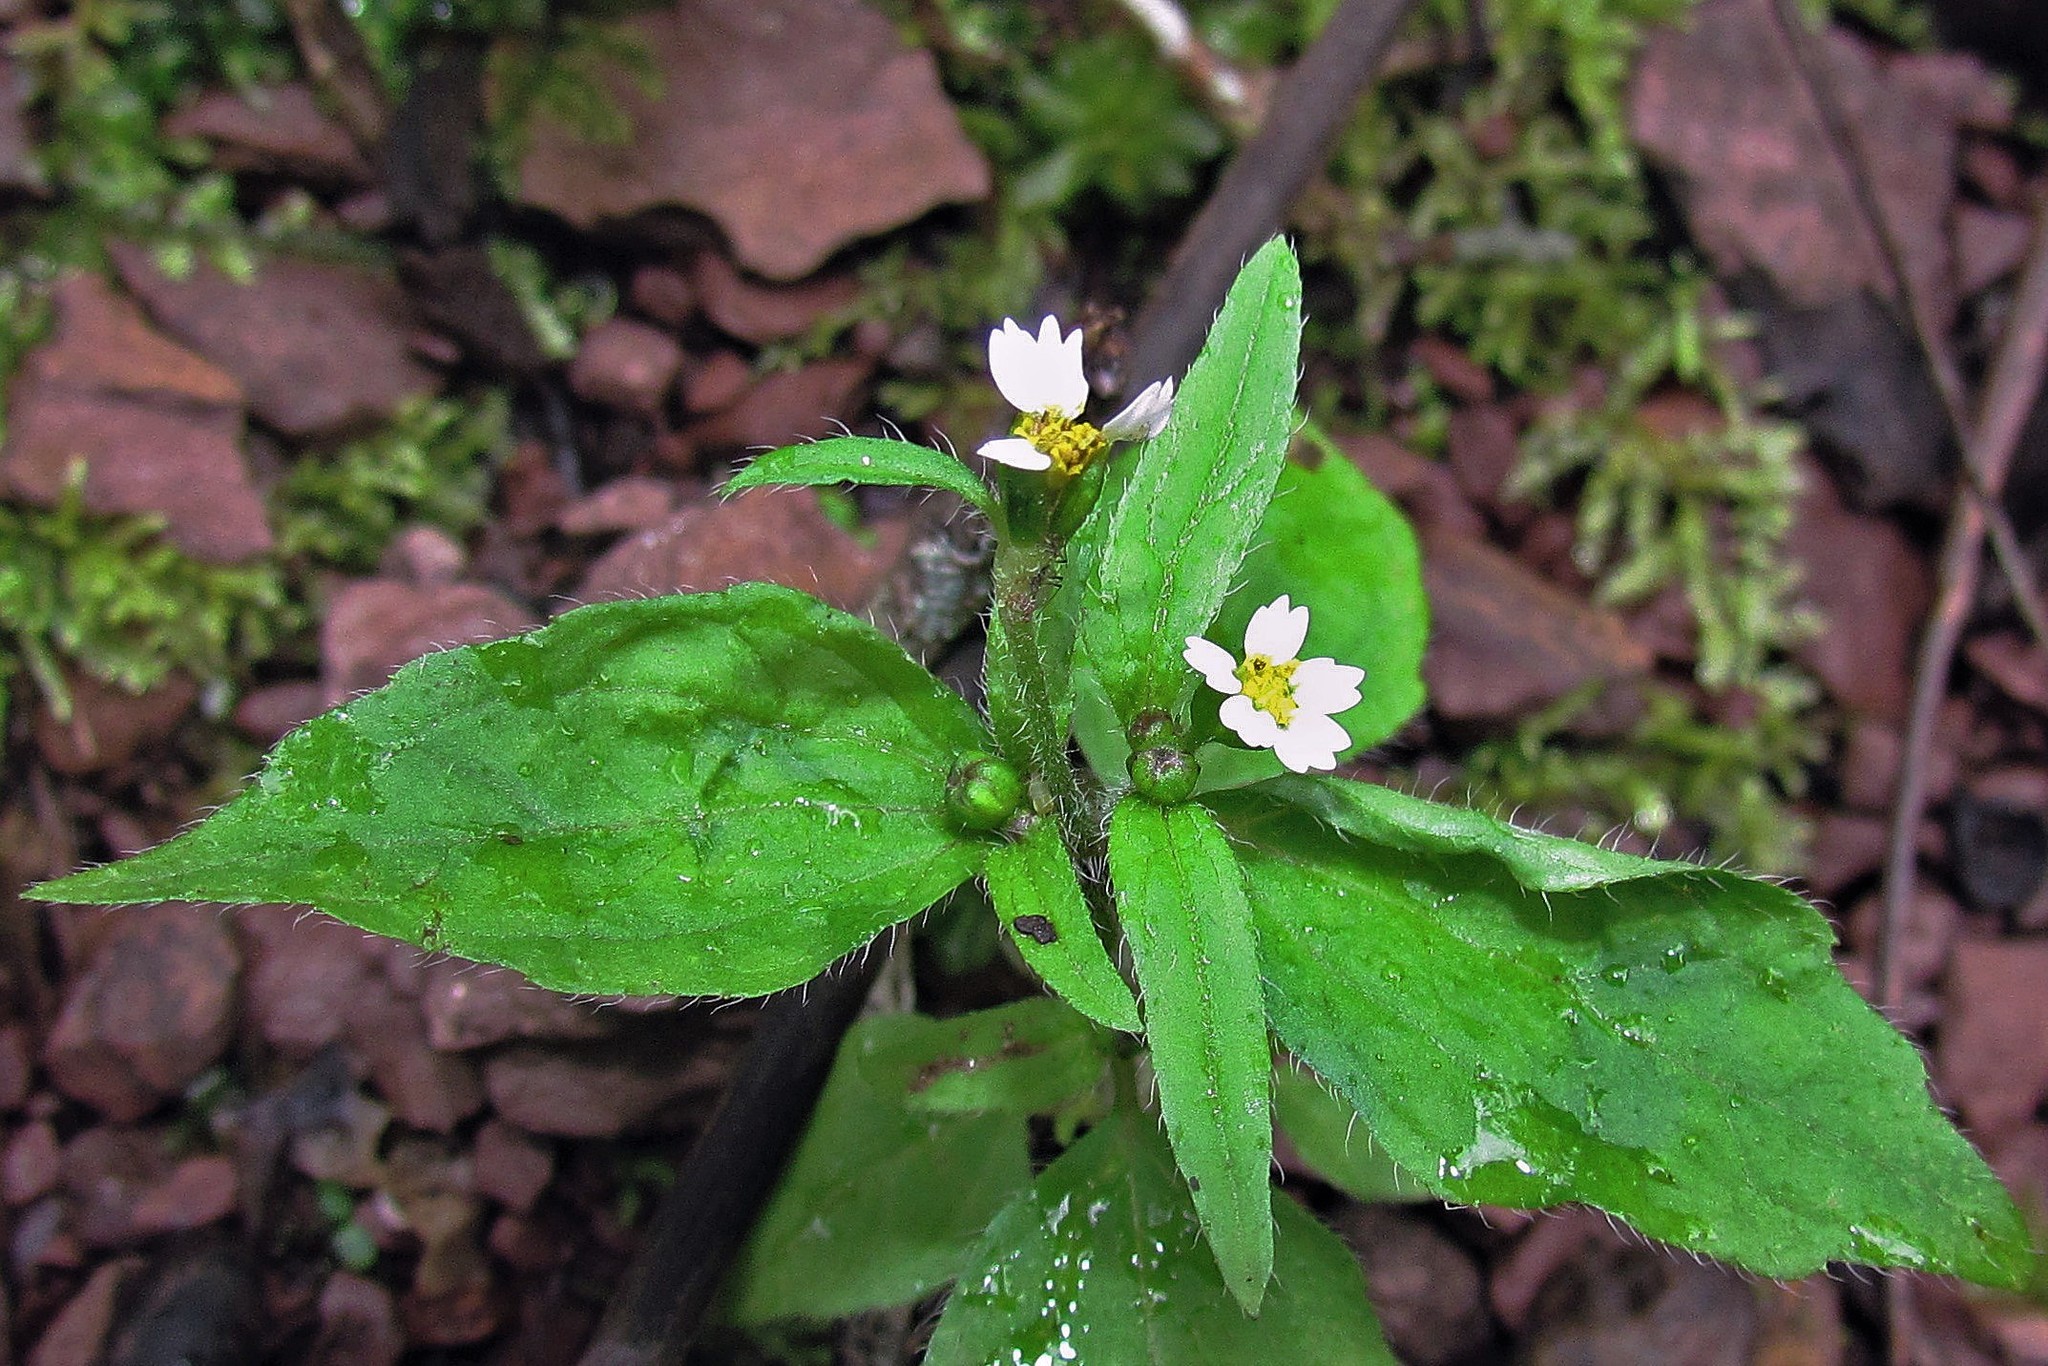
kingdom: Plantae
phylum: Tracheophyta
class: Magnoliopsida
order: Asterales
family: Asteraceae
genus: Galinsoga
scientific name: Galinsoga quadriradiata
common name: Shaggy soldier
